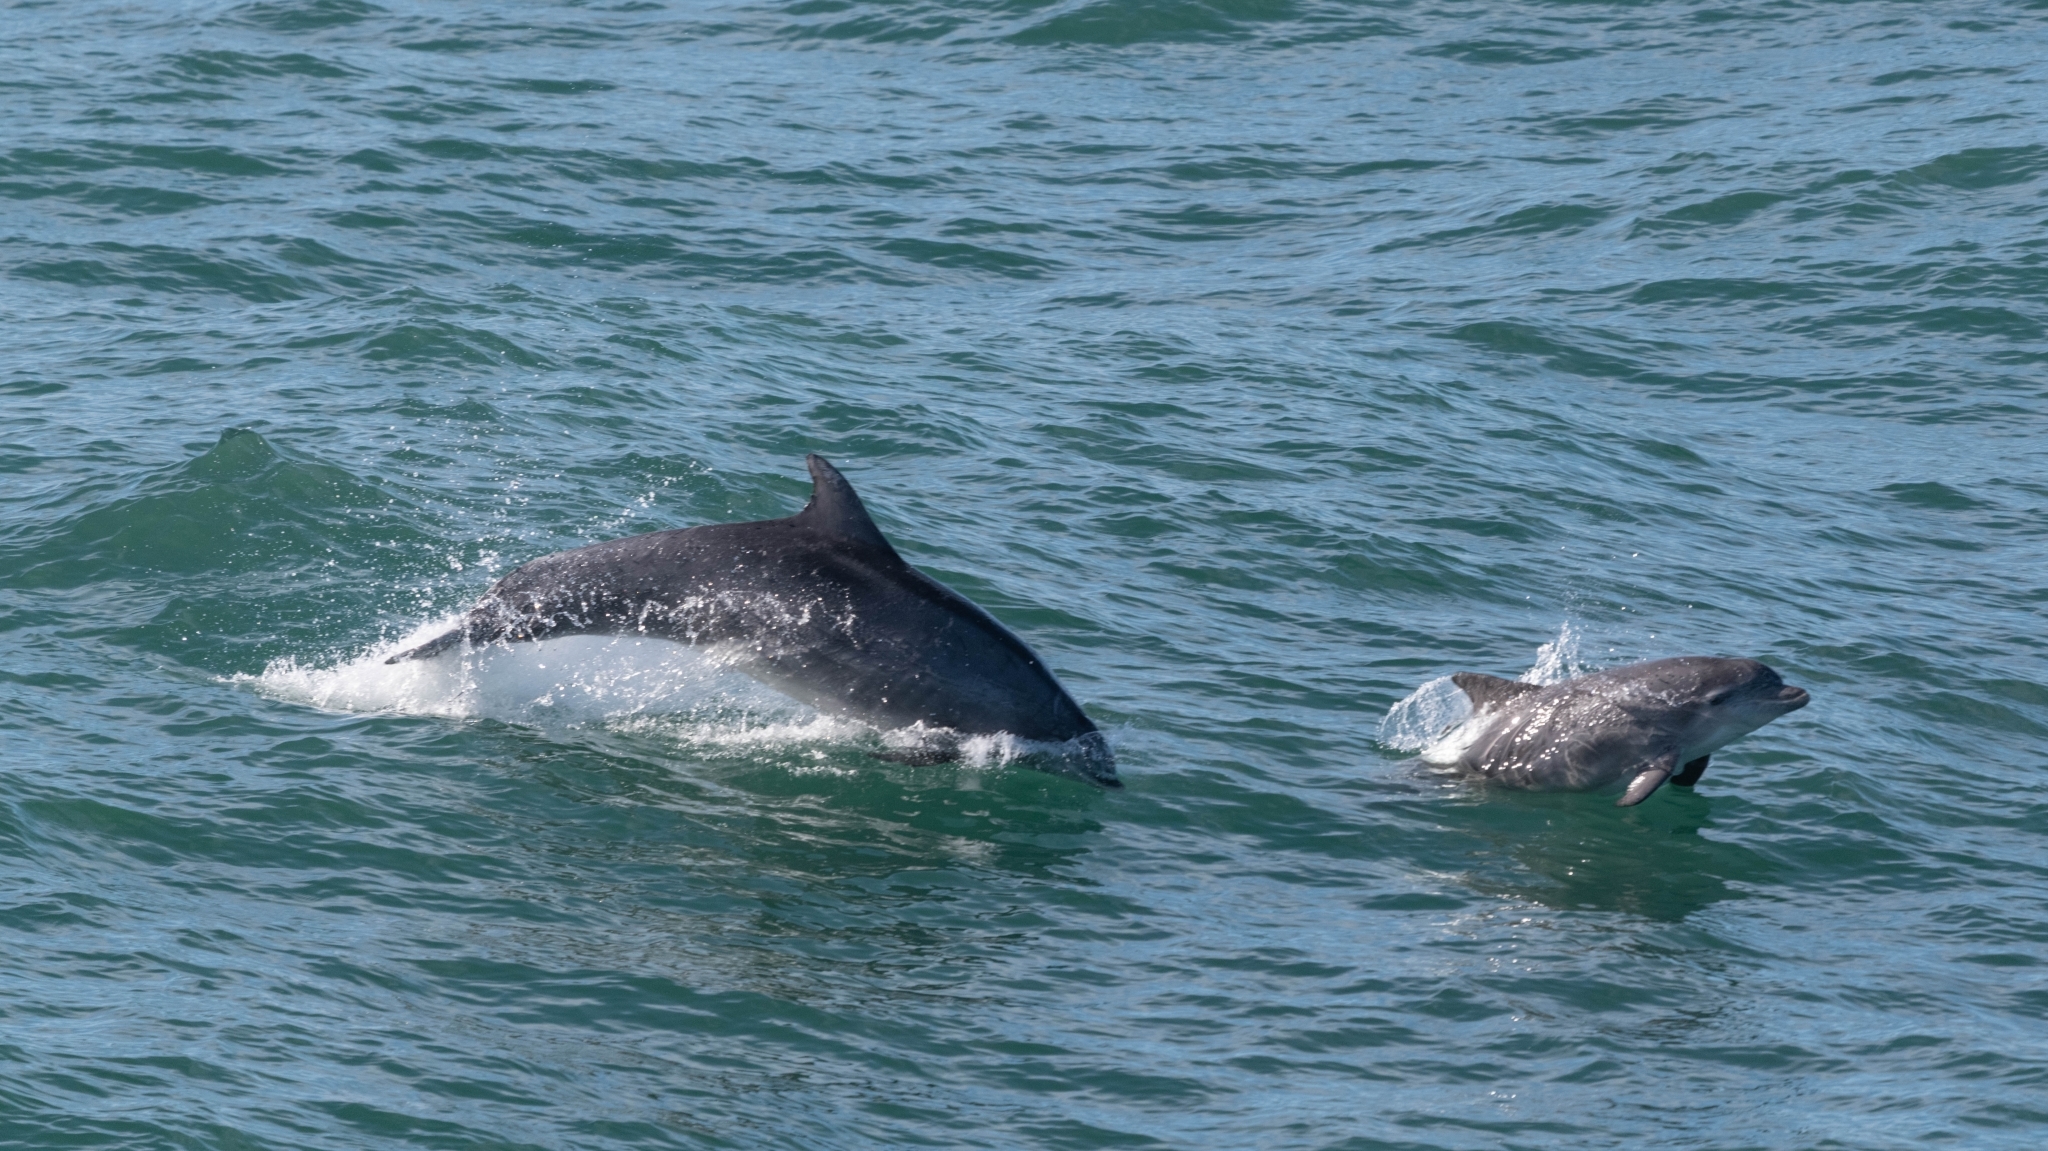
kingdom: Animalia
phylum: Chordata
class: Mammalia
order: Cetacea
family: Delphinidae
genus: Tursiops
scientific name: Tursiops truncatus
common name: Bottlenose dolphin
